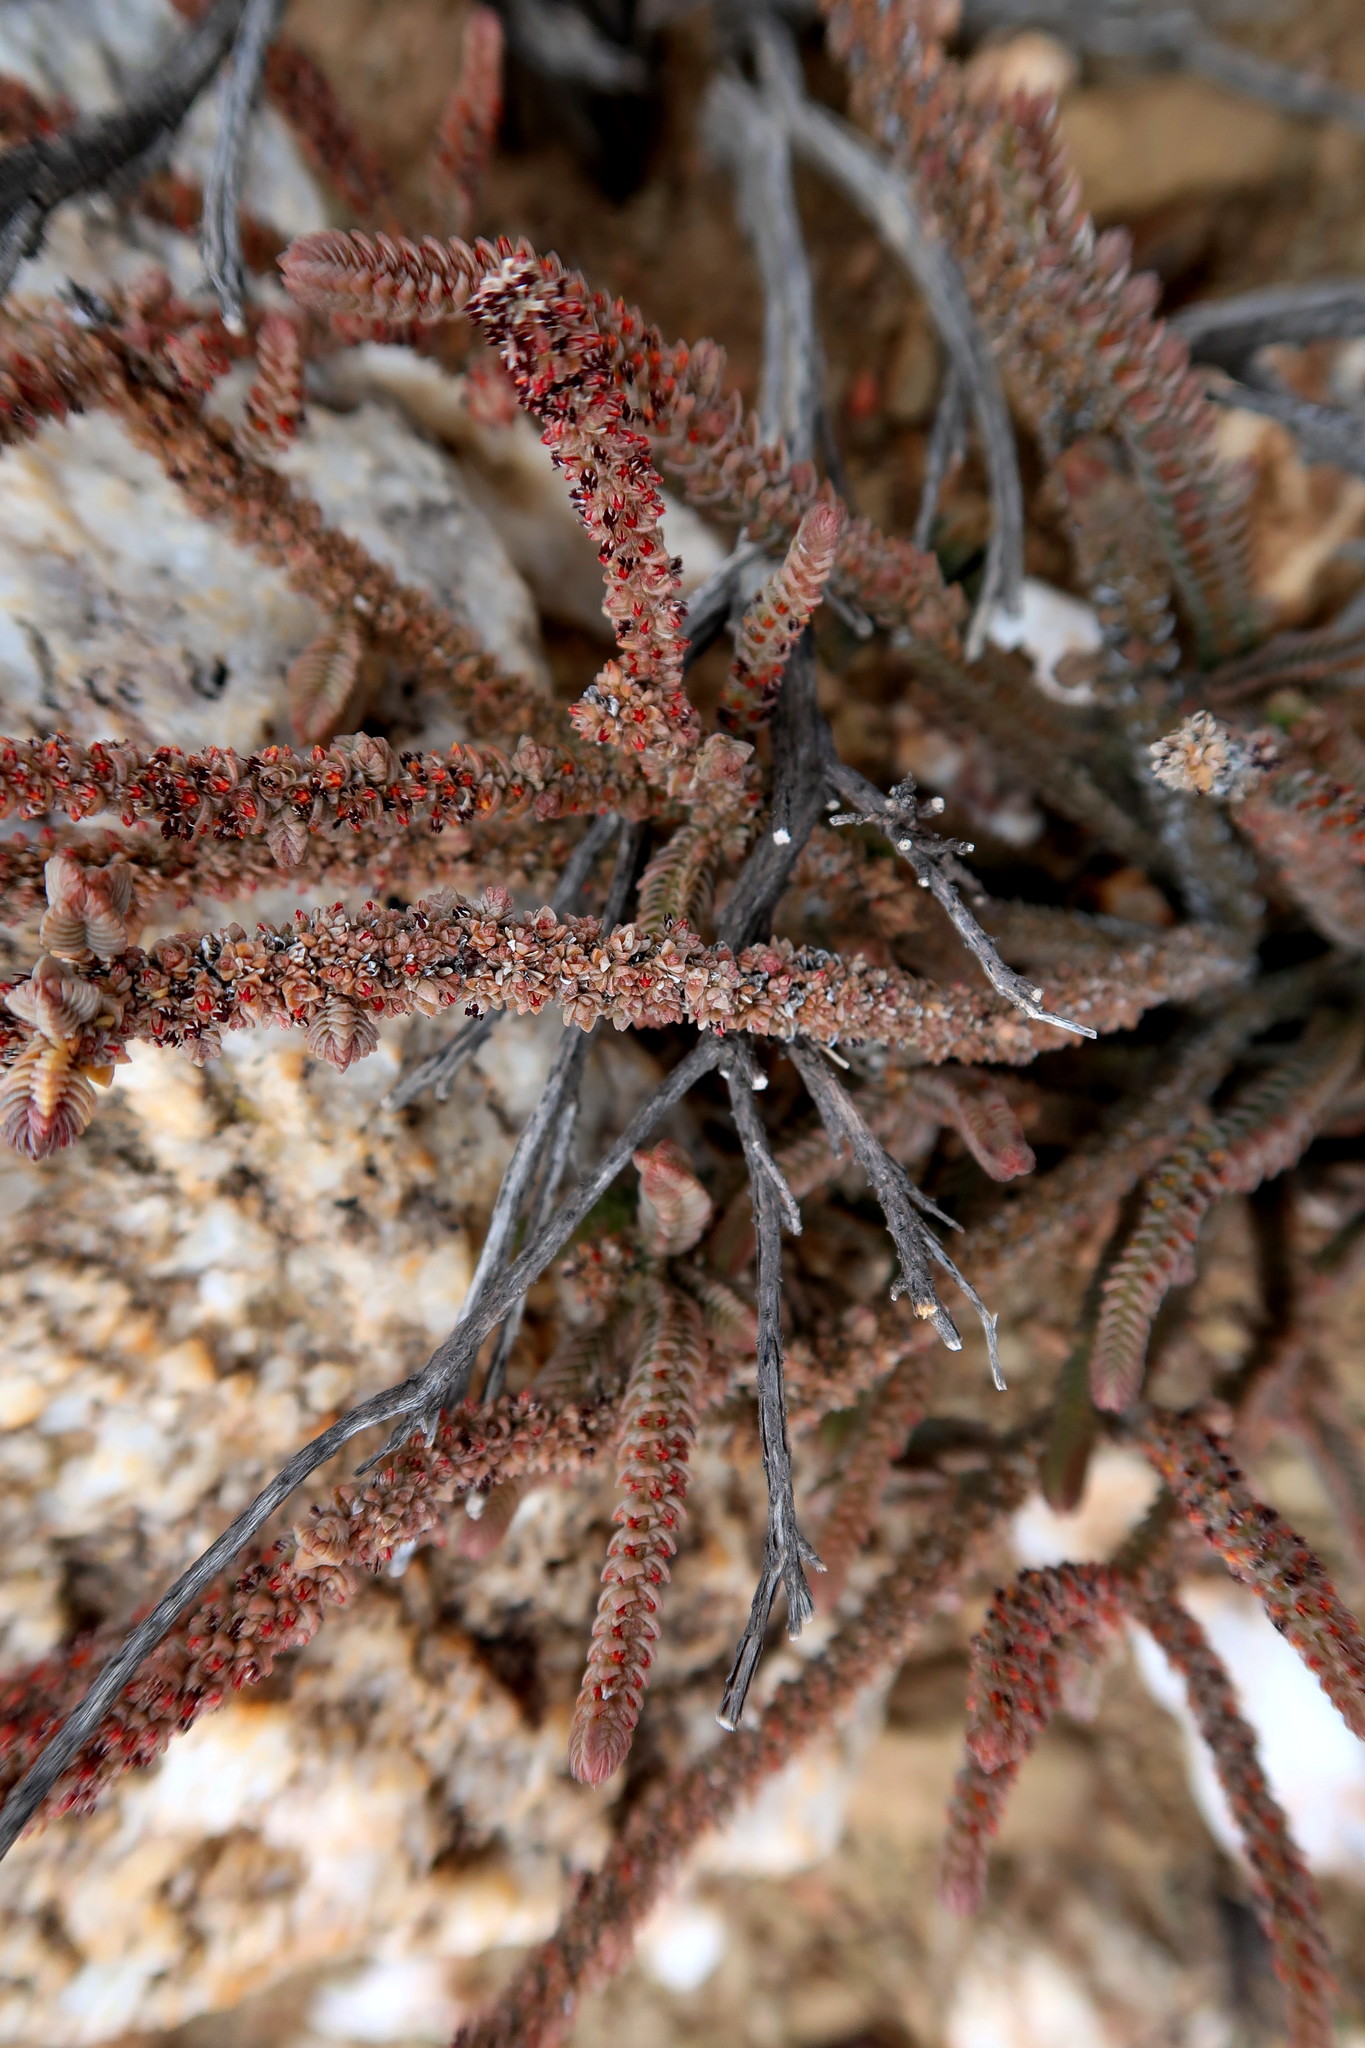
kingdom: Plantae
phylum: Tracheophyta
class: Magnoliopsida
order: Saxifragales
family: Crassulaceae
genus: Crassula
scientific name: Crassula muscosa
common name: Toy-cypress
